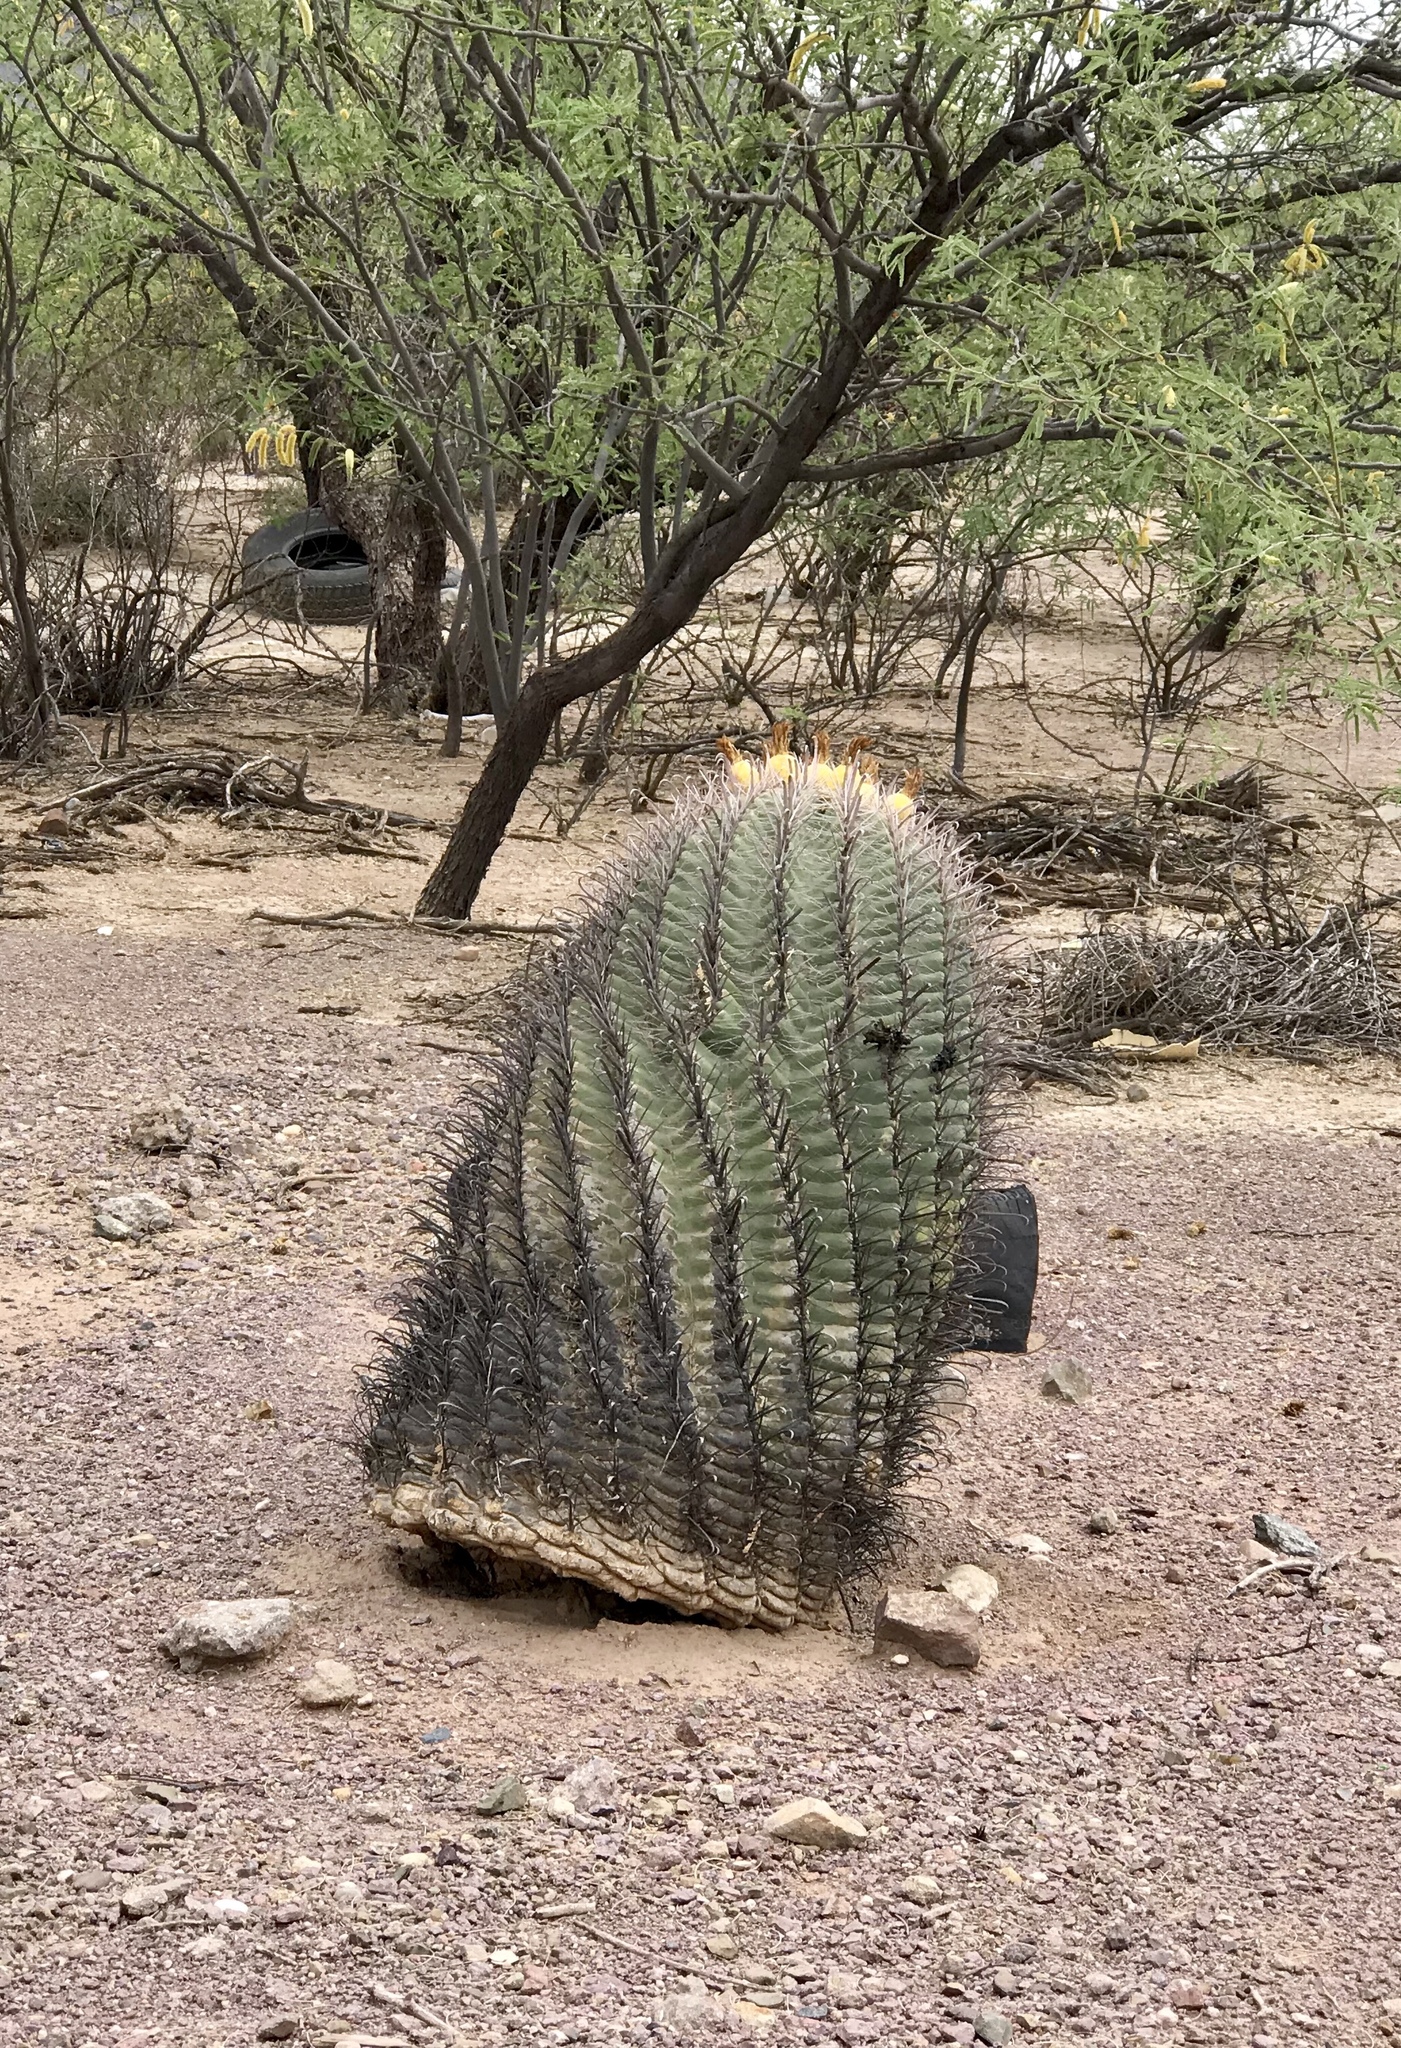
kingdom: Plantae
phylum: Tracheophyta
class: Magnoliopsida
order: Caryophyllales
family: Cactaceae
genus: Ferocactus
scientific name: Ferocactus wislizeni
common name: Candy barrel cactus
